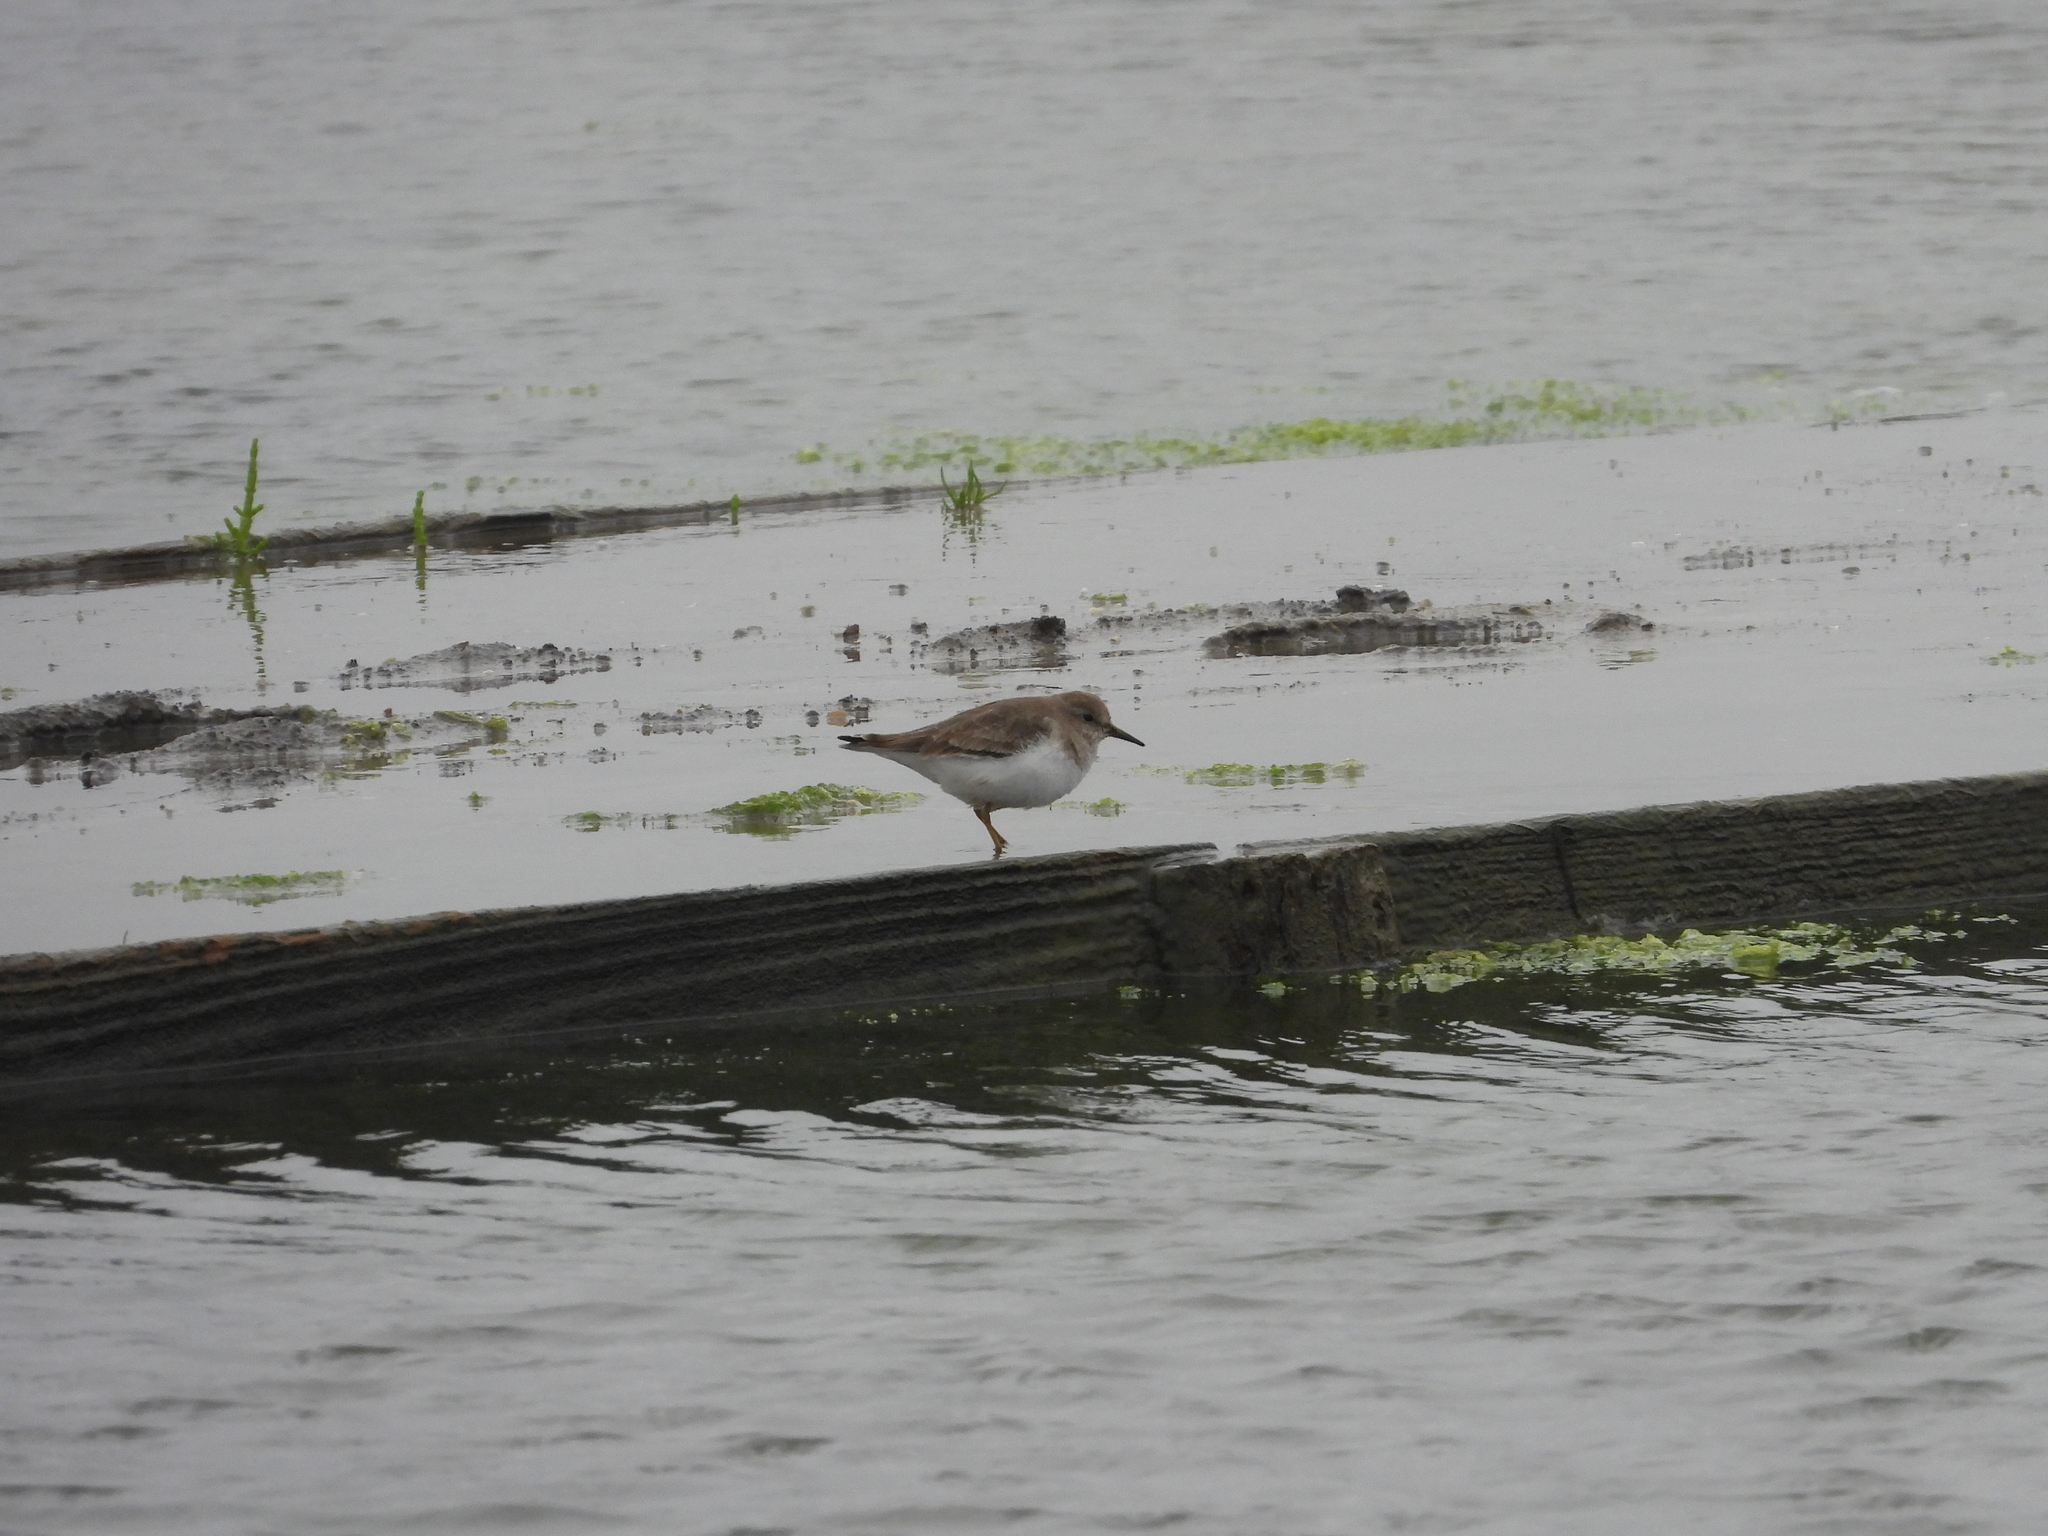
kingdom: Animalia
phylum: Chordata
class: Aves
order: Charadriiformes
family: Scolopacidae
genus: Calidris
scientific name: Calidris temminckii
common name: Temminck's stint
